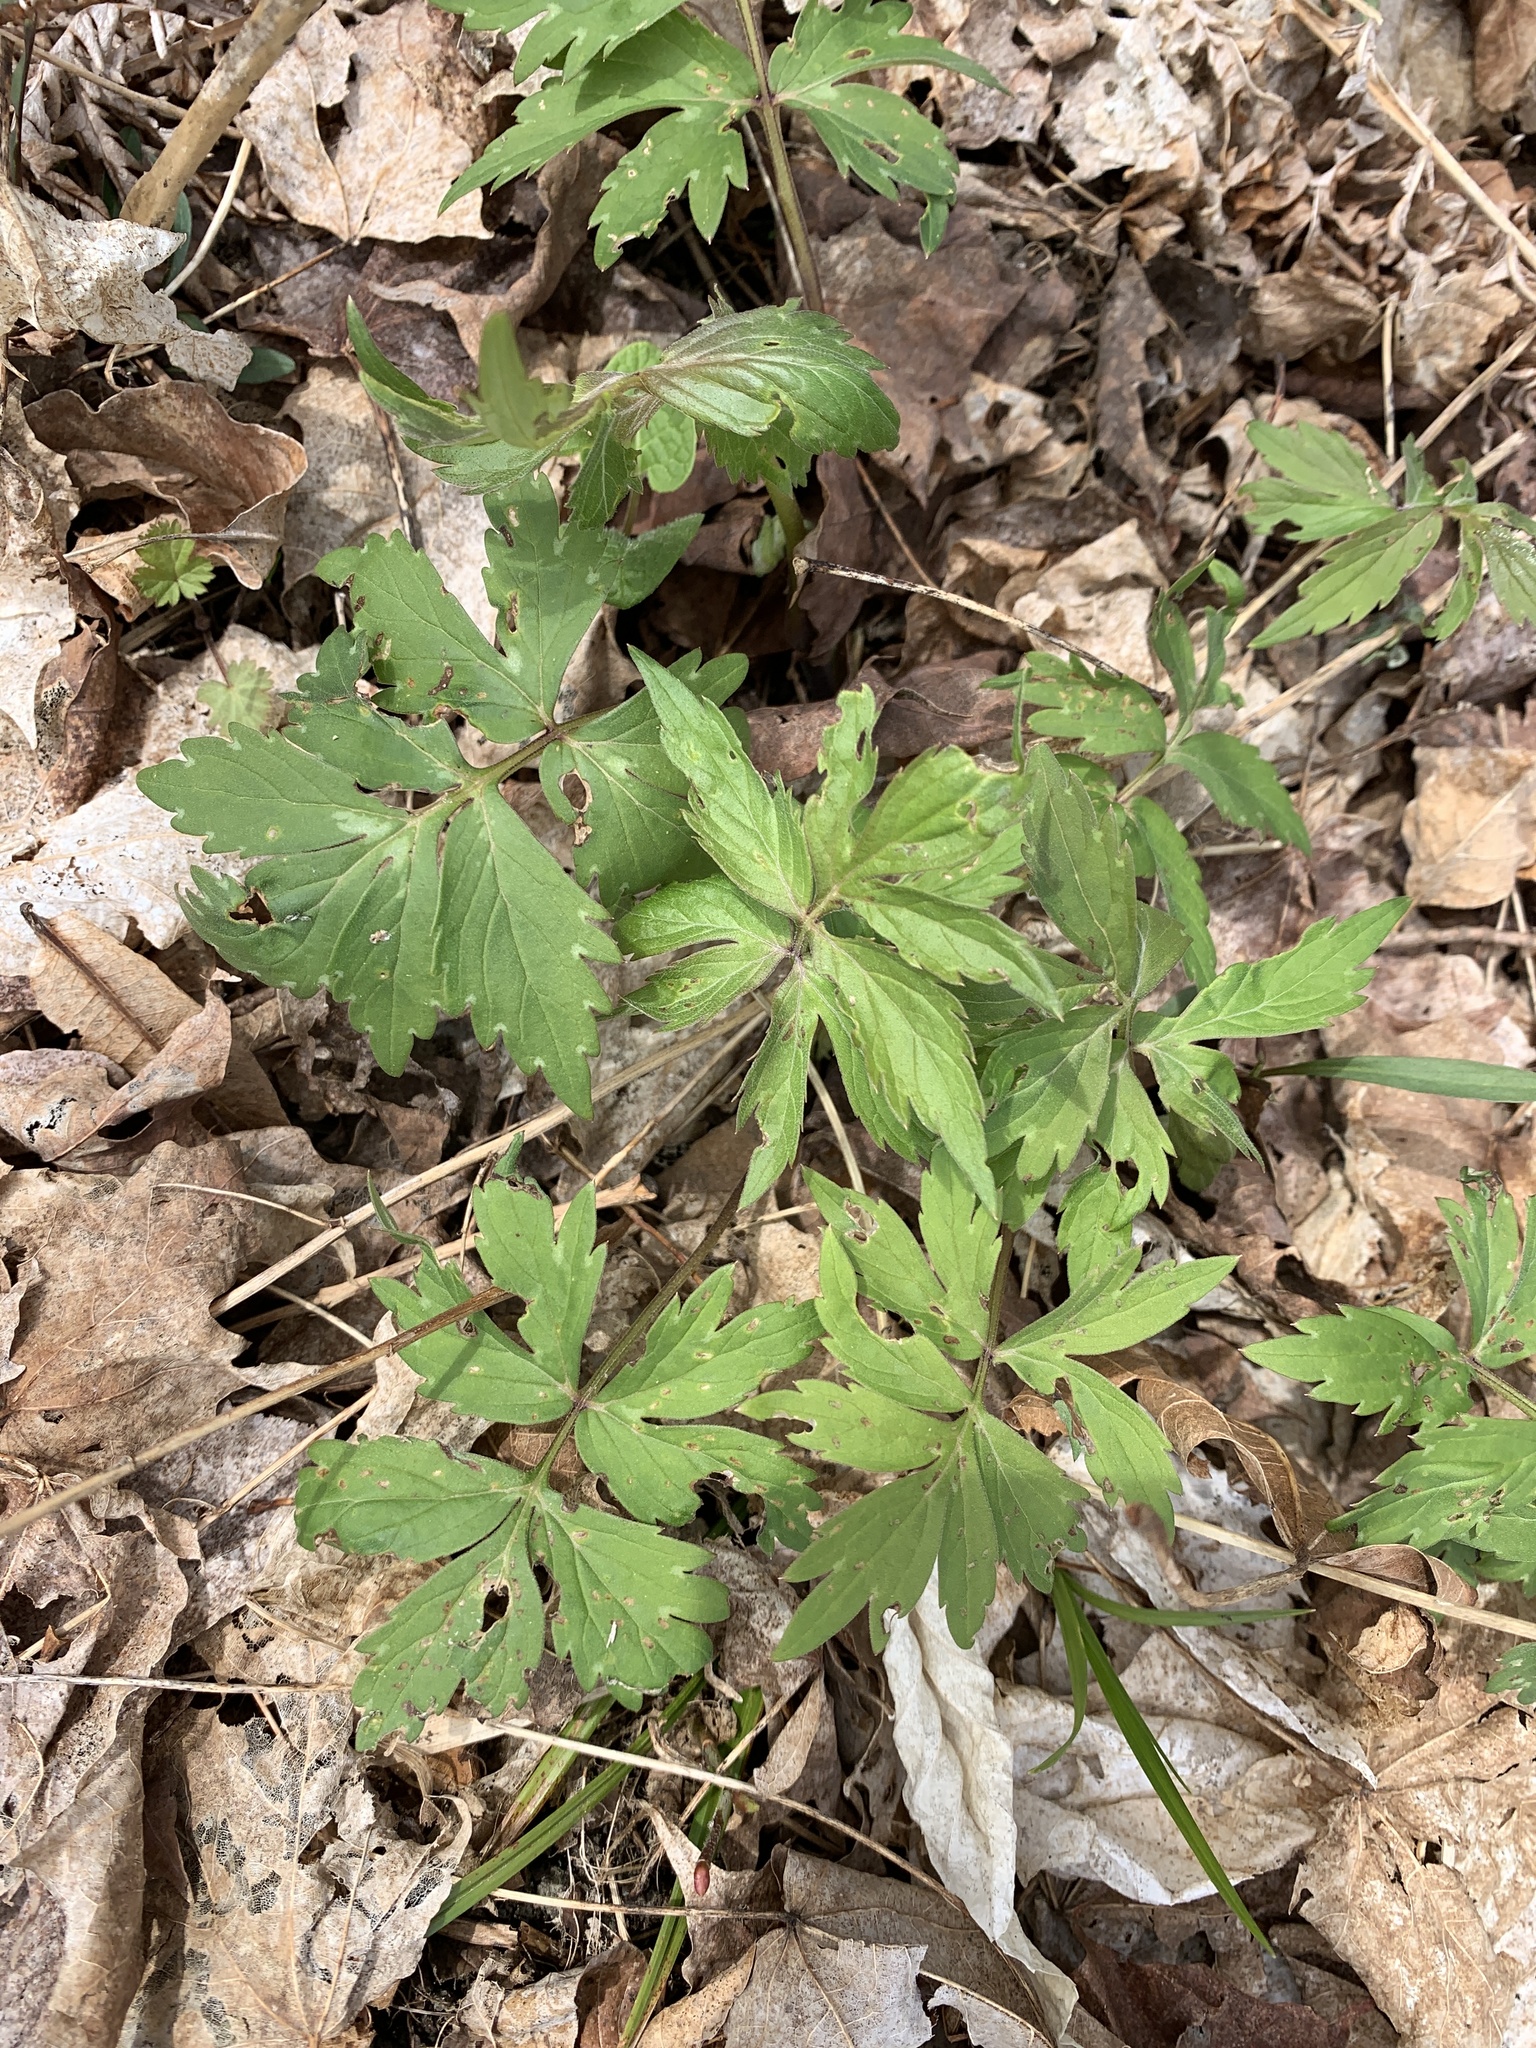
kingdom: Plantae
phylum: Tracheophyta
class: Magnoliopsida
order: Boraginales
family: Hydrophyllaceae
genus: Hydrophyllum
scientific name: Hydrophyllum virginianum
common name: Virginia waterleaf
